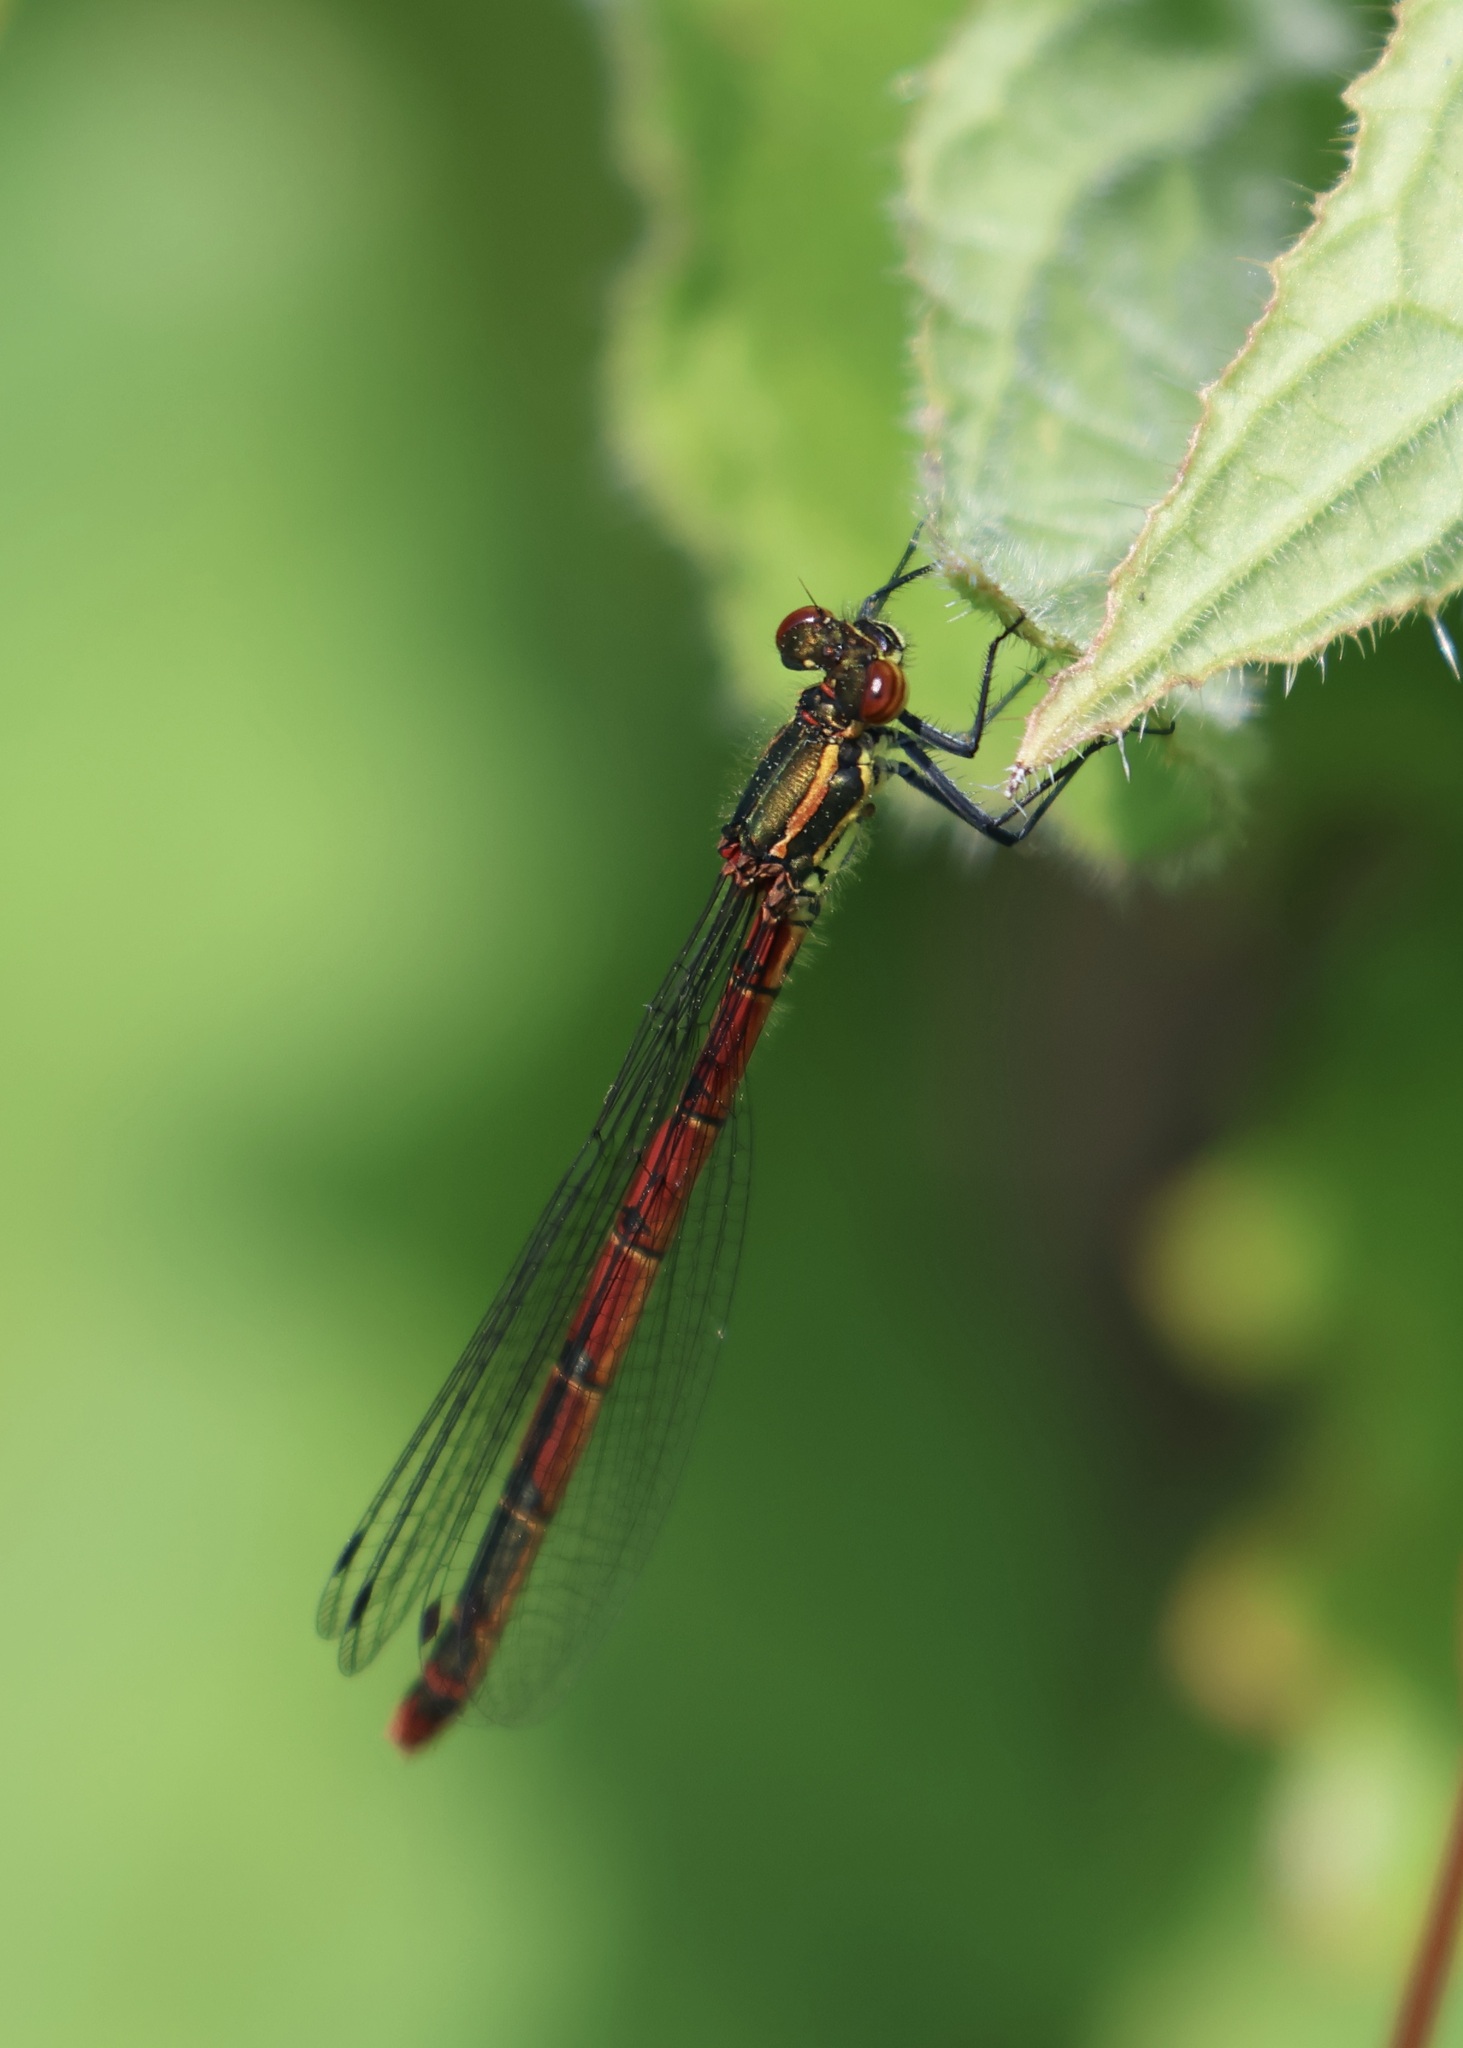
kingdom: Animalia
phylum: Arthropoda
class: Insecta
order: Odonata
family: Coenagrionidae
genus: Pyrrhosoma
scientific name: Pyrrhosoma nymphula
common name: Large red damsel
